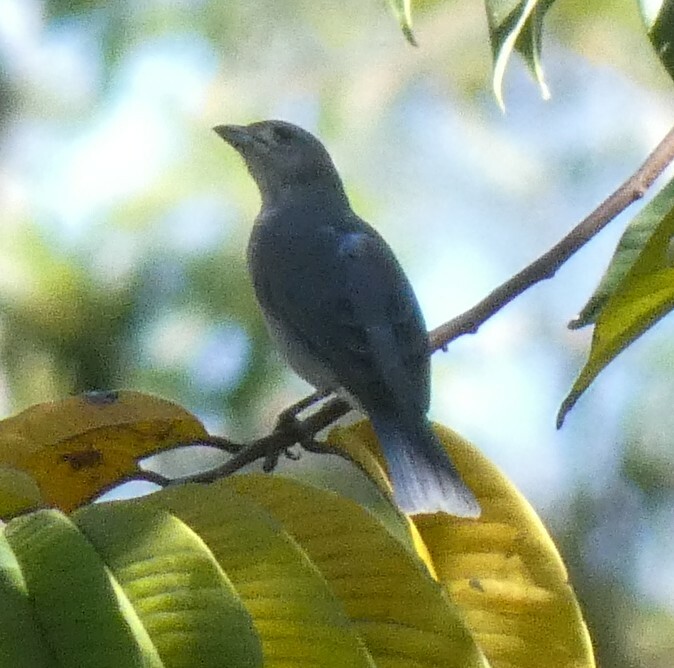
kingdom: Animalia
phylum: Chordata
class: Aves
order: Passeriformes
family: Thraupidae
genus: Thraupis
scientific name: Thraupis sayaca
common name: Sayaca tanager
